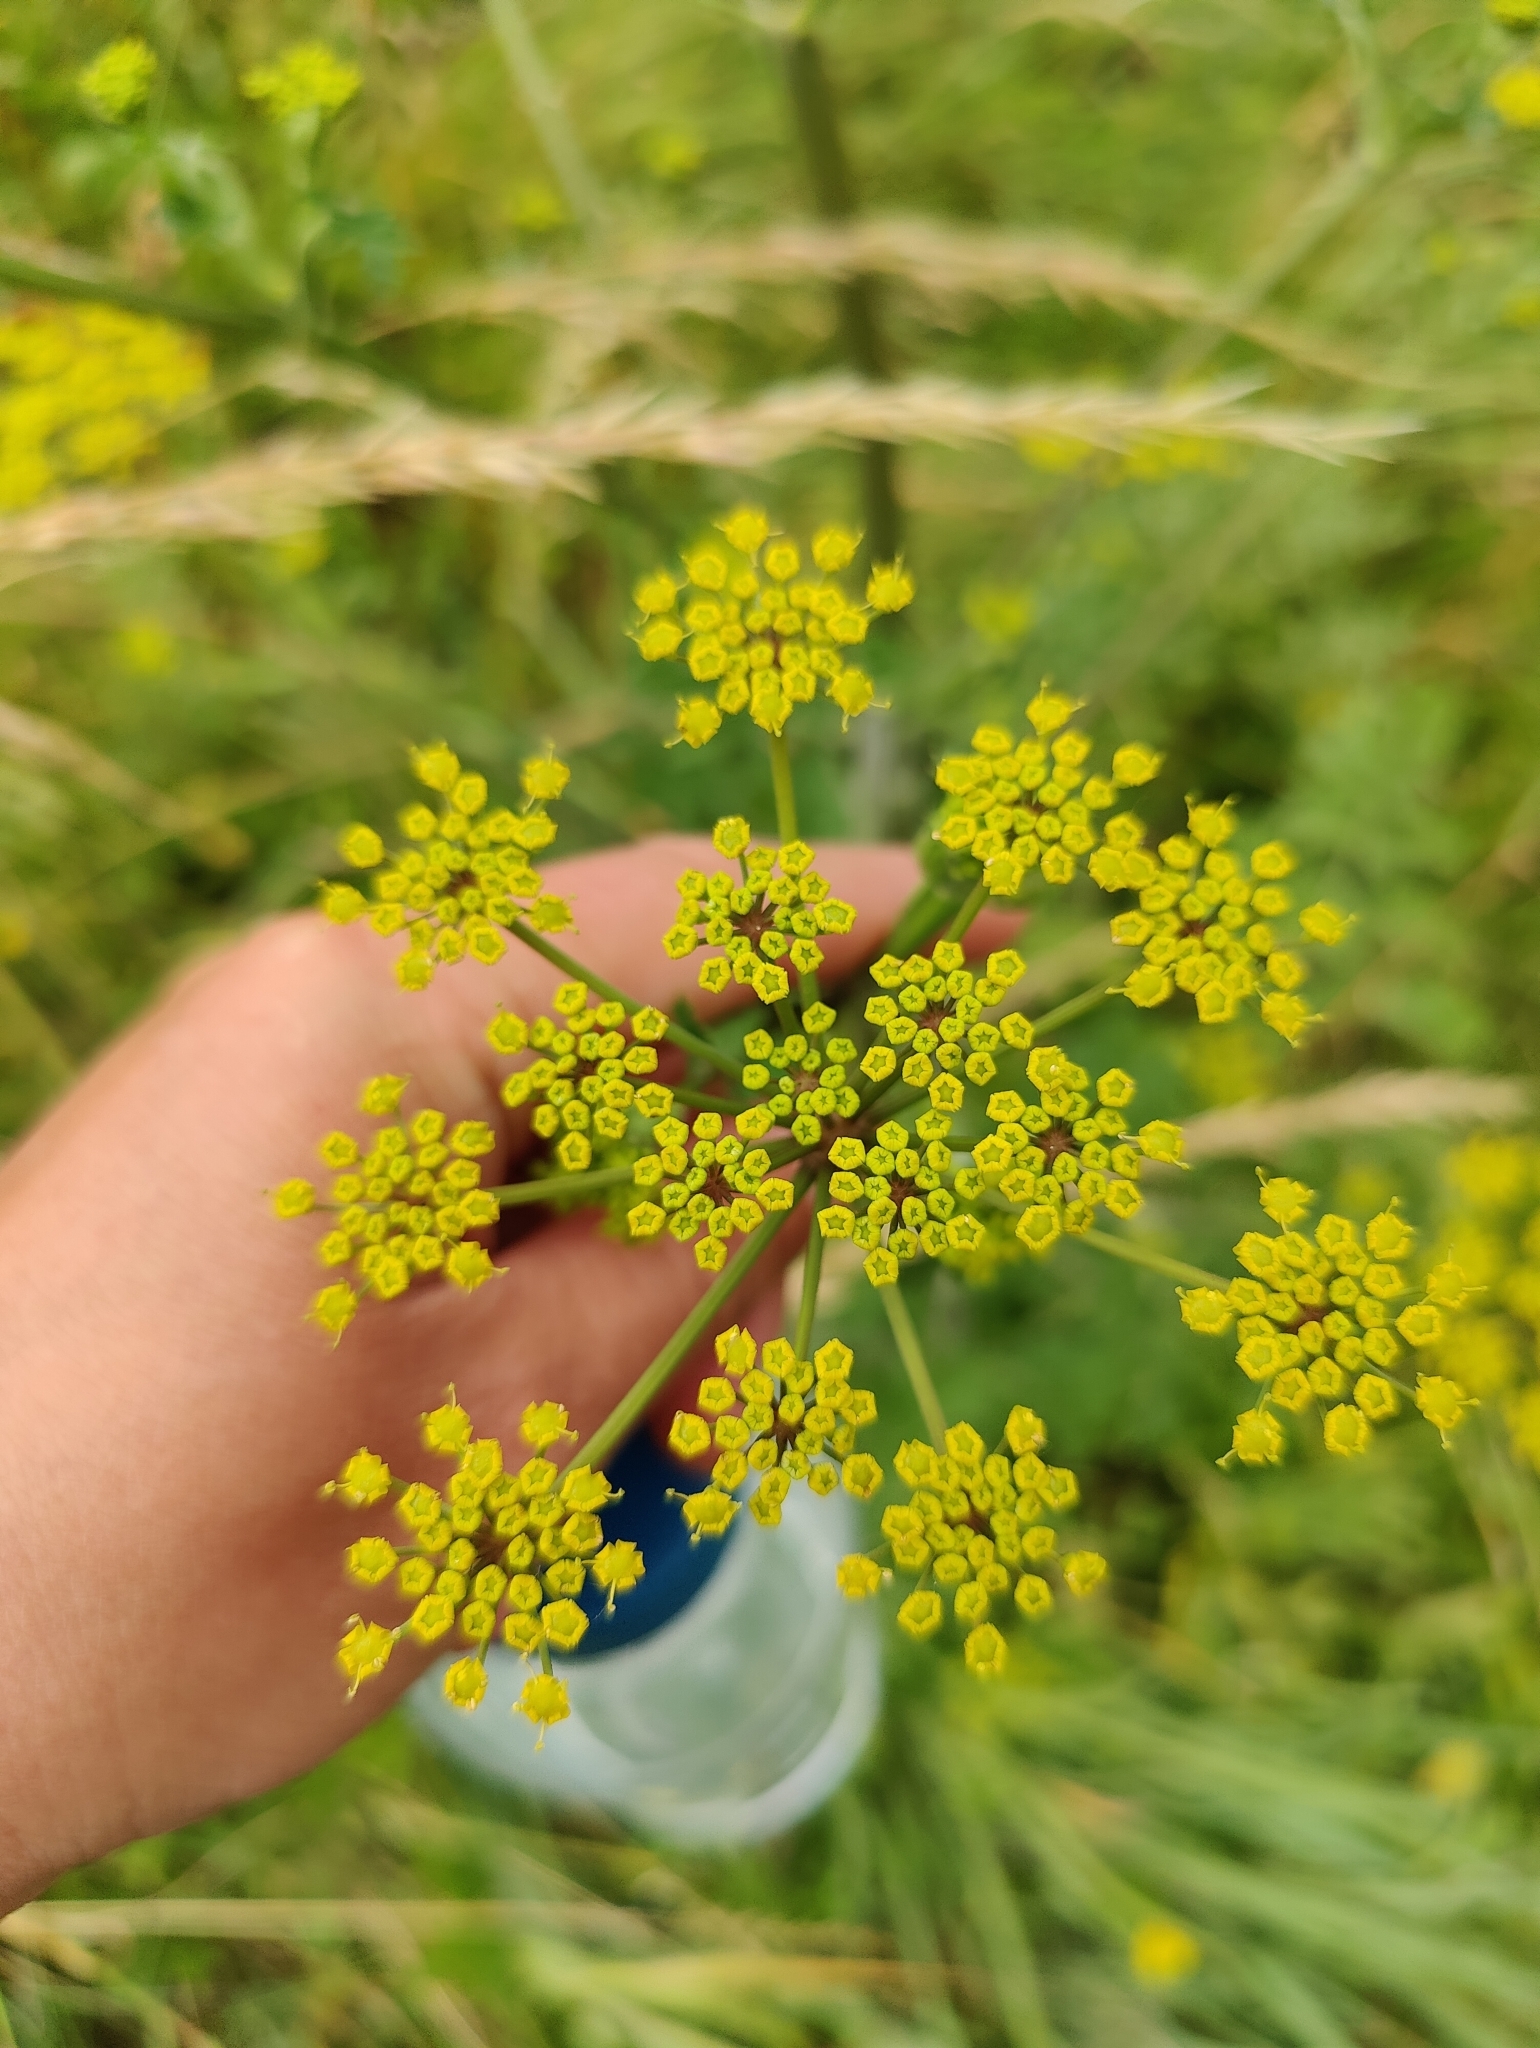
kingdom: Plantae
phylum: Tracheophyta
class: Magnoliopsida
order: Apiales
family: Apiaceae
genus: Pastinaca
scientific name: Pastinaca sativa
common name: Wild parsnip
